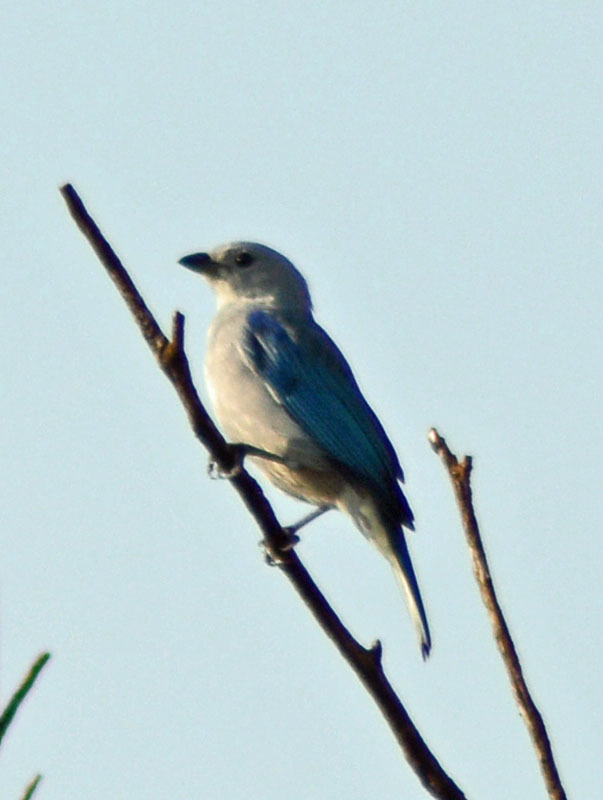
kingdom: Animalia
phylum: Chordata
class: Aves
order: Passeriformes
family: Thraupidae
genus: Thraupis
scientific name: Thraupis episcopus
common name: Blue-grey tanager
